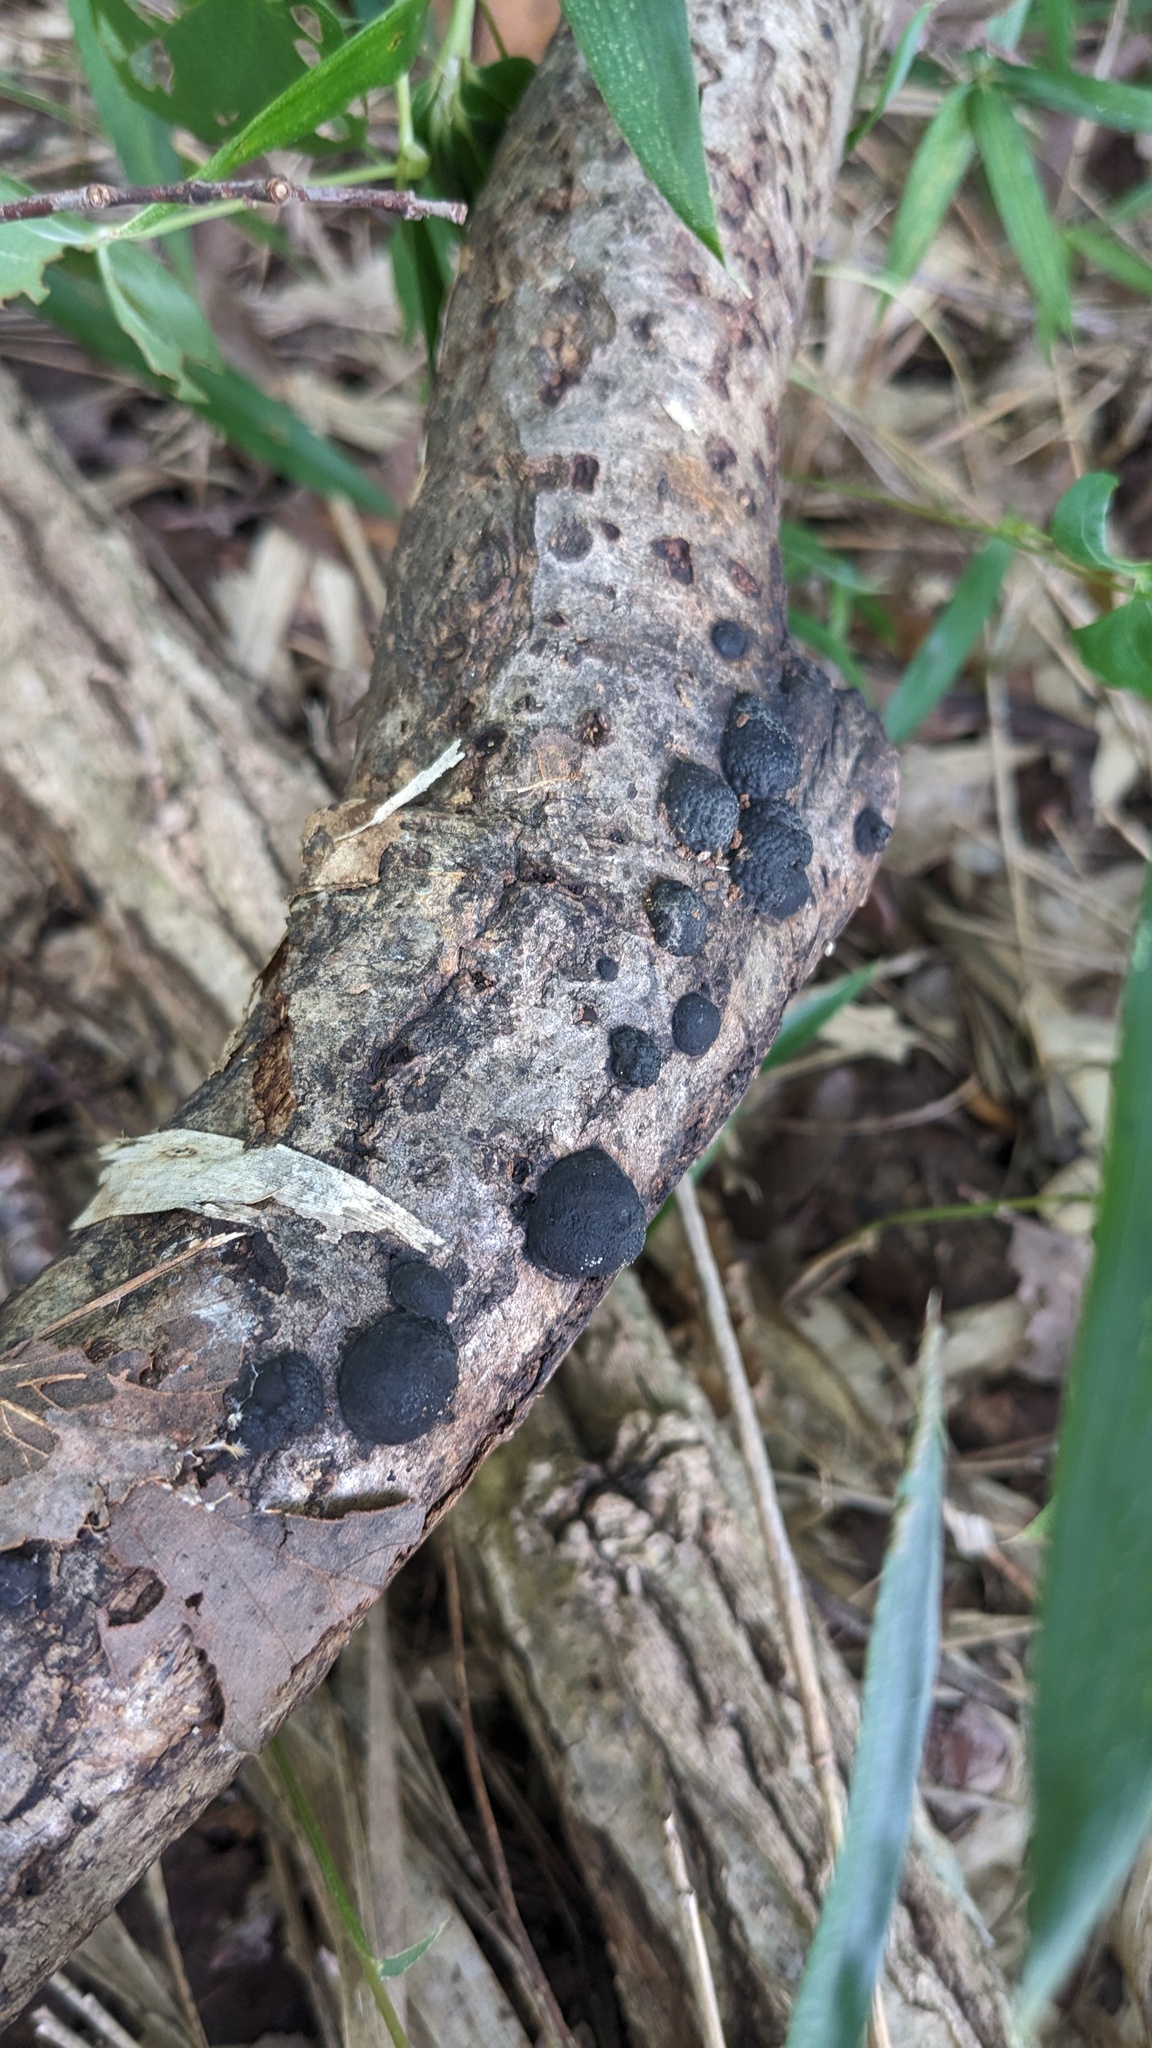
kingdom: Fungi
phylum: Ascomycota
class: Sordariomycetes
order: Xylariales
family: Hypoxylaceae
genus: Annulohypoxylon
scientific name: Annulohypoxylon truncatum
